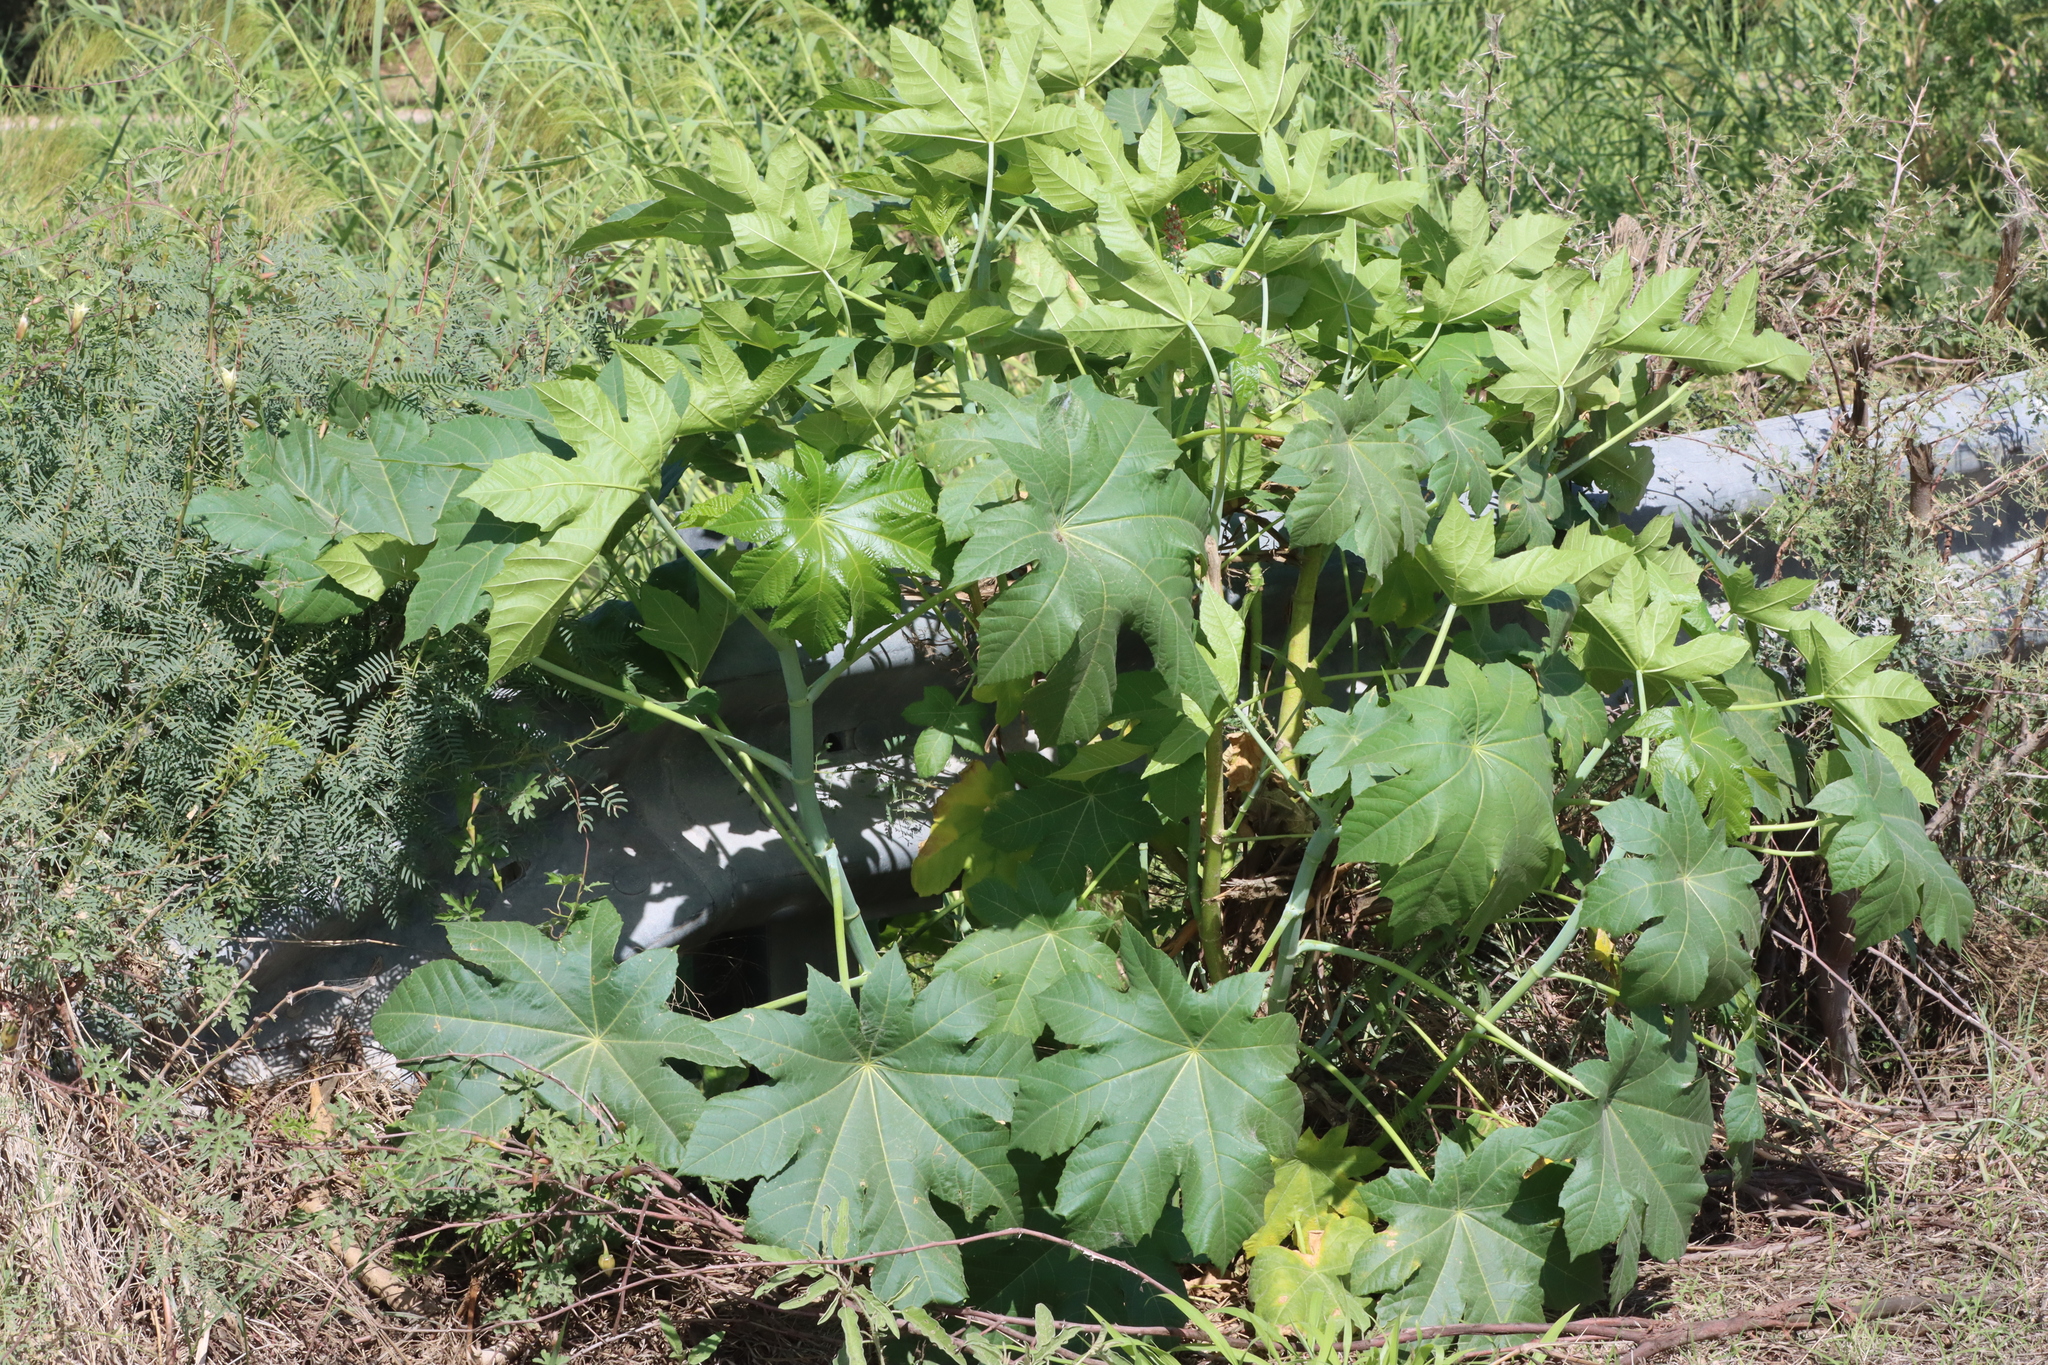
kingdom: Plantae
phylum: Tracheophyta
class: Magnoliopsida
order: Malpighiales
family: Euphorbiaceae
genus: Ricinus
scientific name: Ricinus communis
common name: Castor-oil-plant
